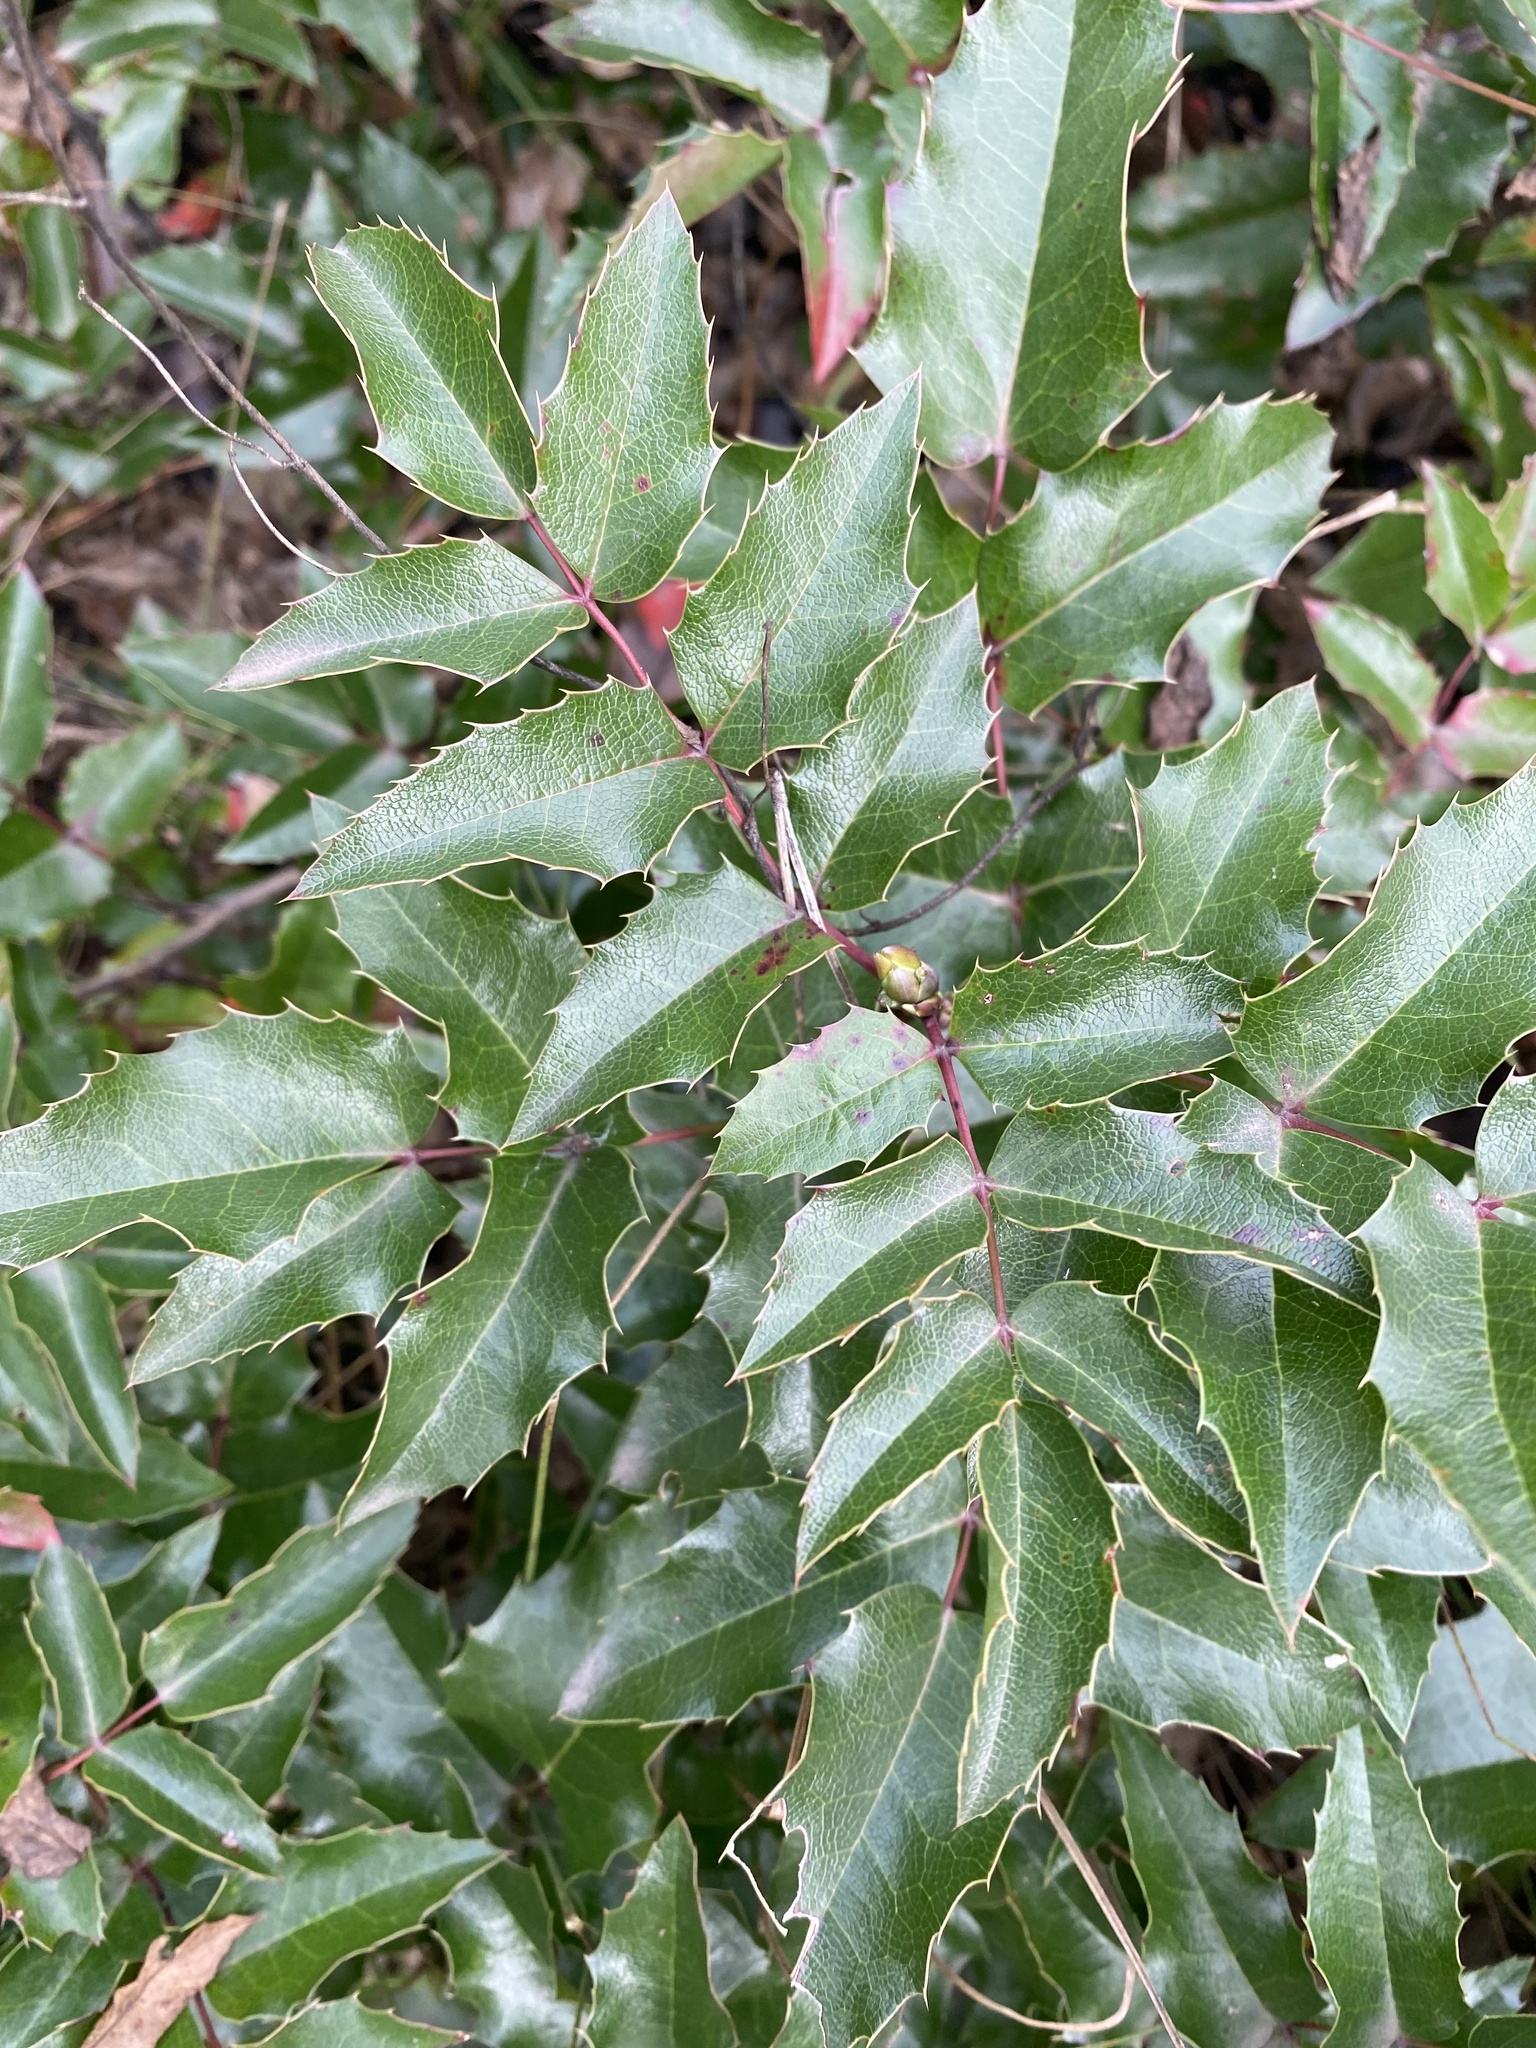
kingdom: Plantae
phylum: Tracheophyta
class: Magnoliopsida
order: Ranunculales
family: Berberidaceae
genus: Mahonia
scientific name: Mahonia aquifolium
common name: Oregon-grape
